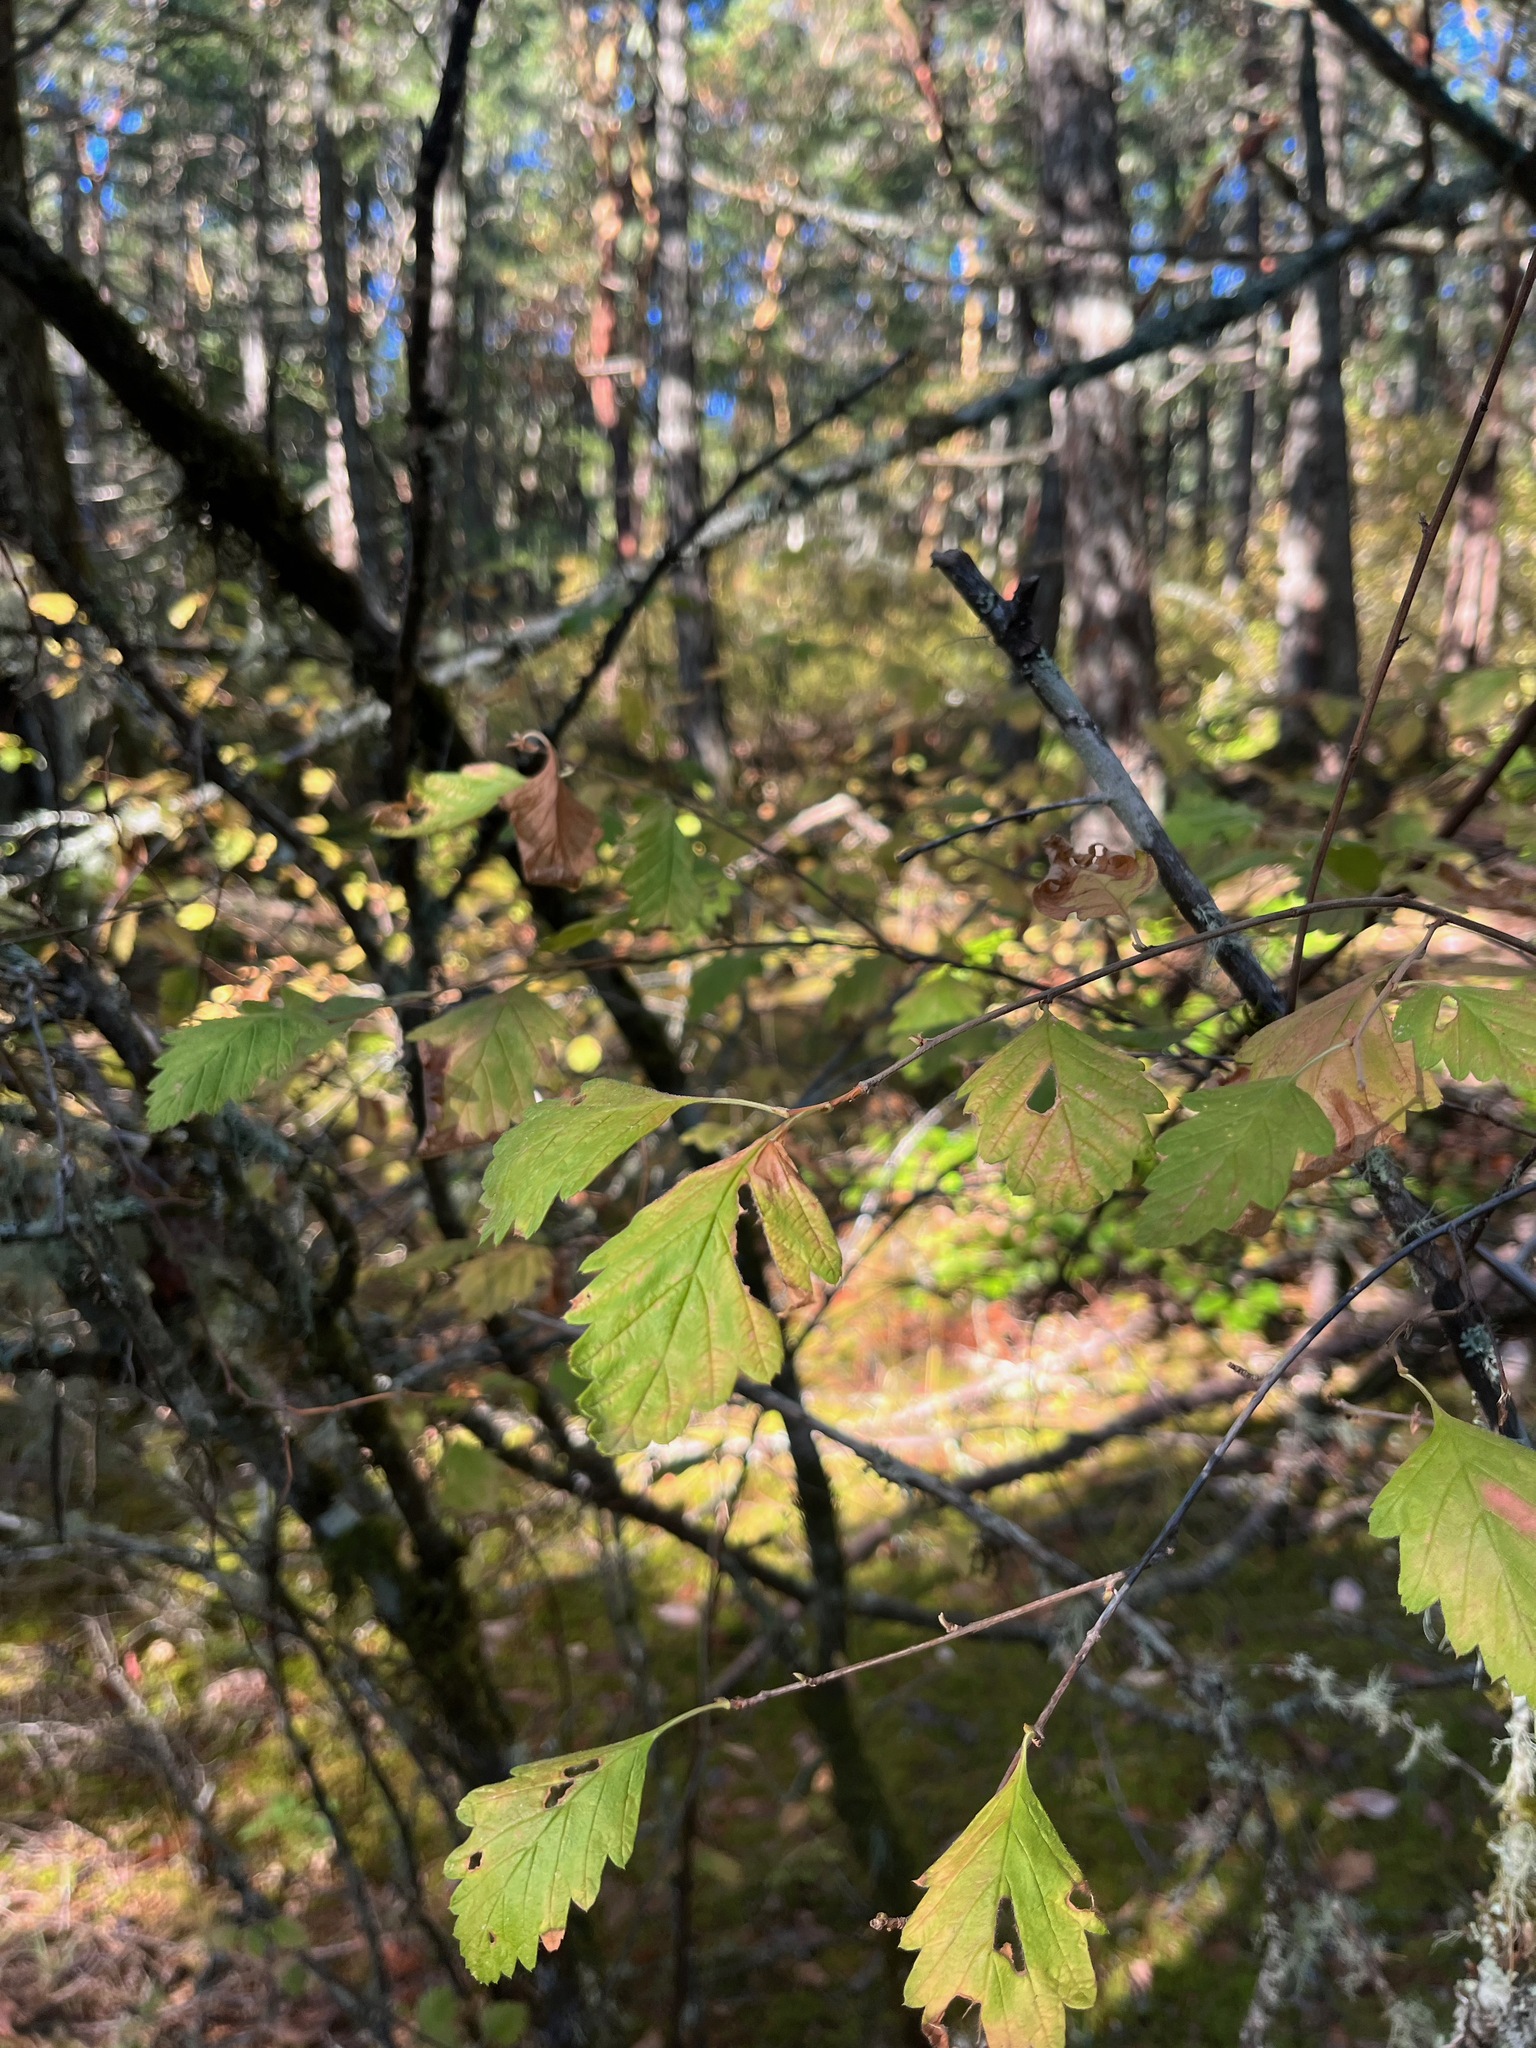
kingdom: Plantae
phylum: Tracheophyta
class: Magnoliopsida
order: Rosales
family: Rosaceae
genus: Holodiscus
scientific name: Holodiscus discolor
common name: Oceanspray
